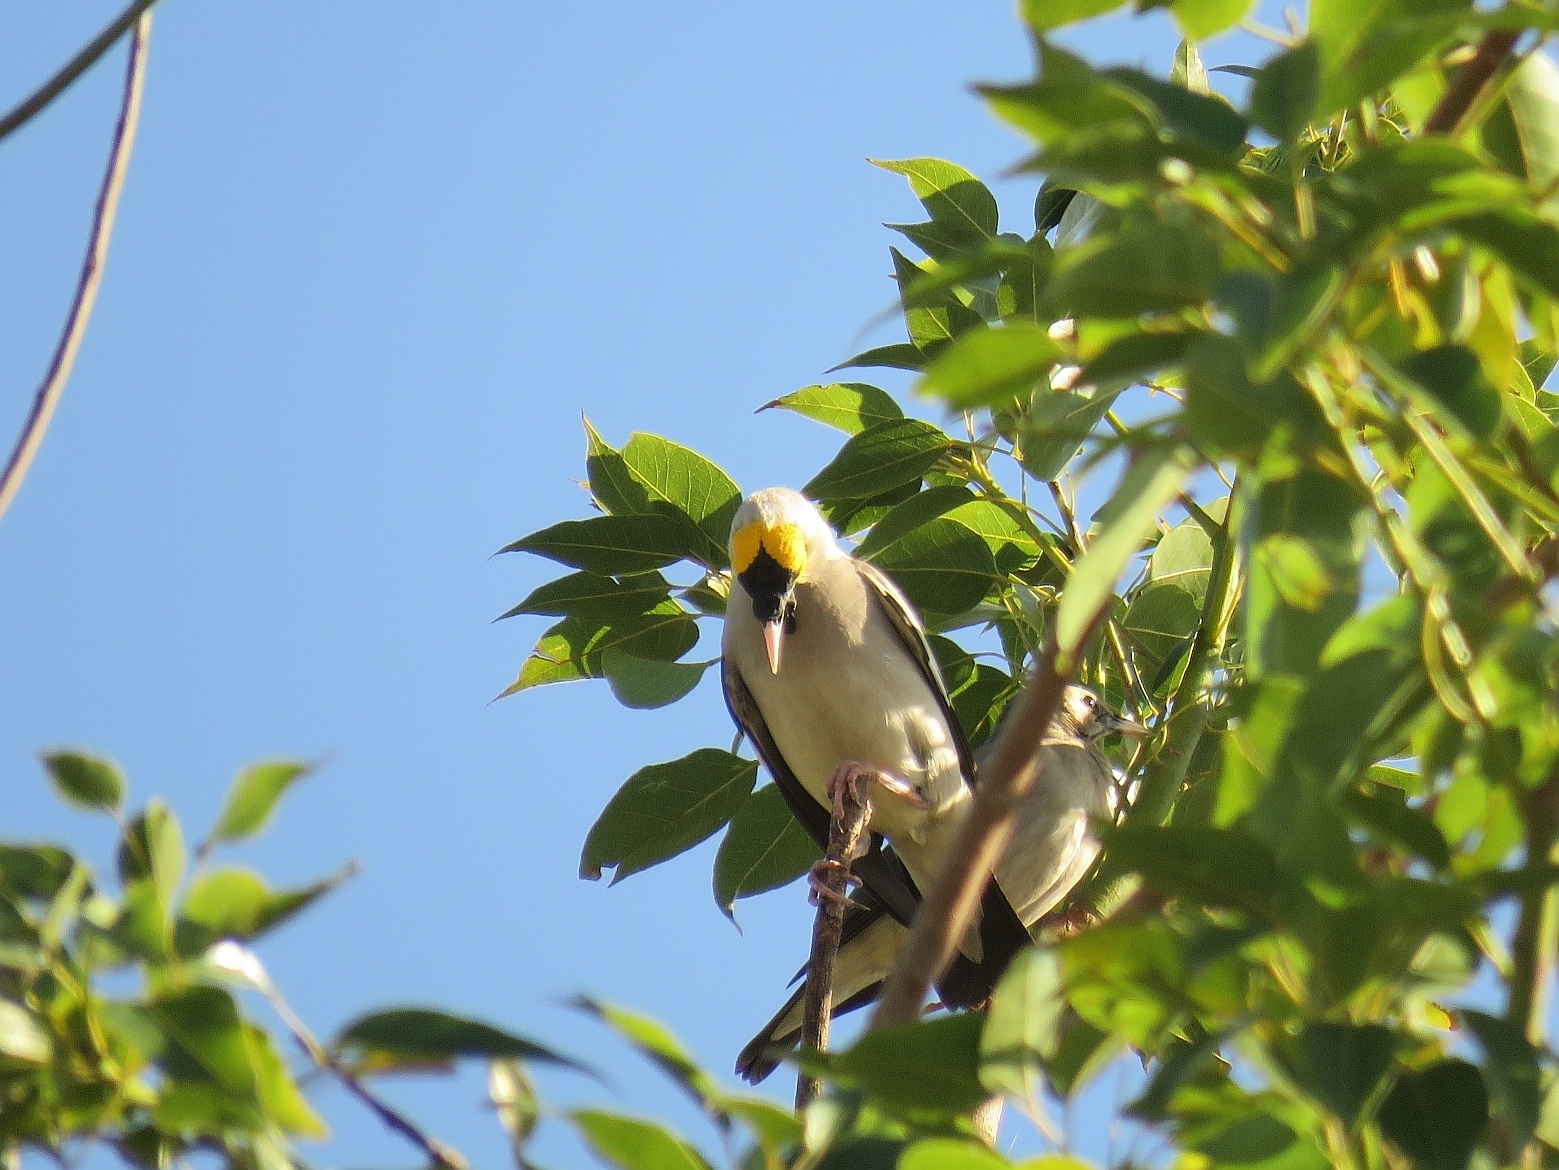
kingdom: Animalia
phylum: Chordata
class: Aves
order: Passeriformes
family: Sturnidae
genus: Creatophora
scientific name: Creatophora cinerea
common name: Wattled starling
